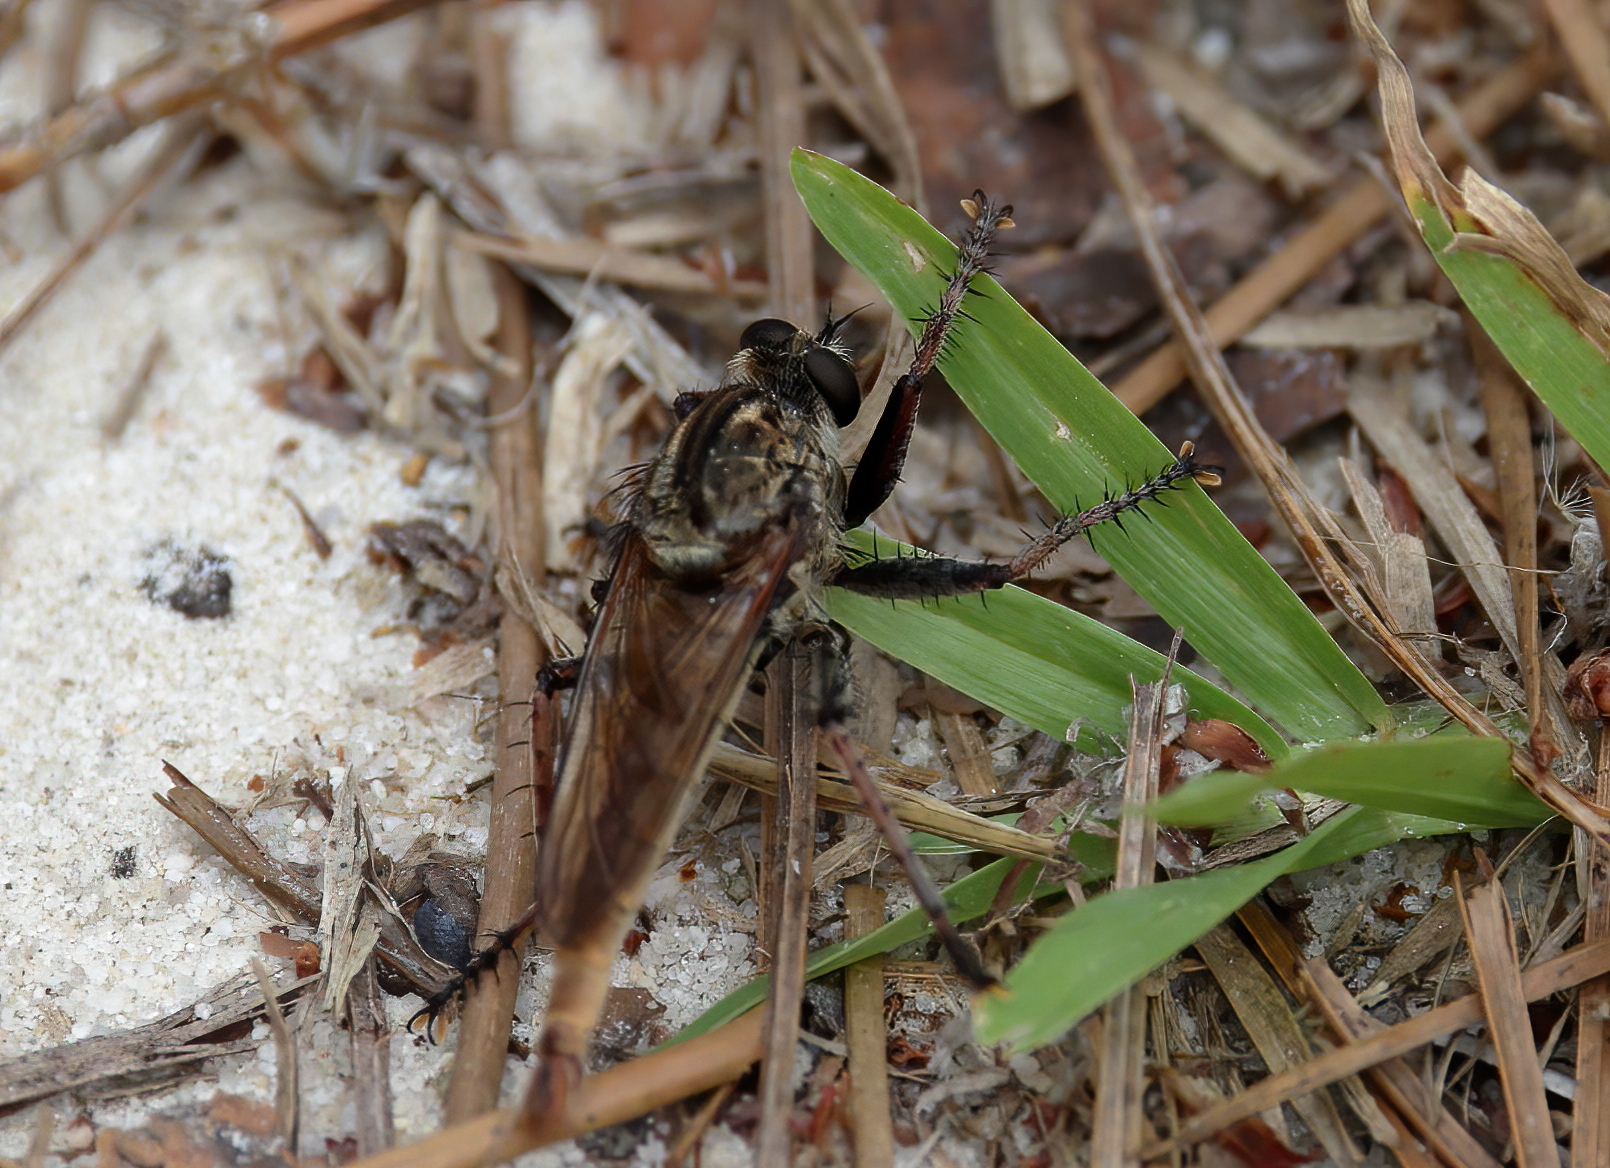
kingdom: Animalia
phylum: Arthropoda
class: Insecta
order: Diptera
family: Asilidae
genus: Proctacanthus
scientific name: Proctacanthus brevipennis
